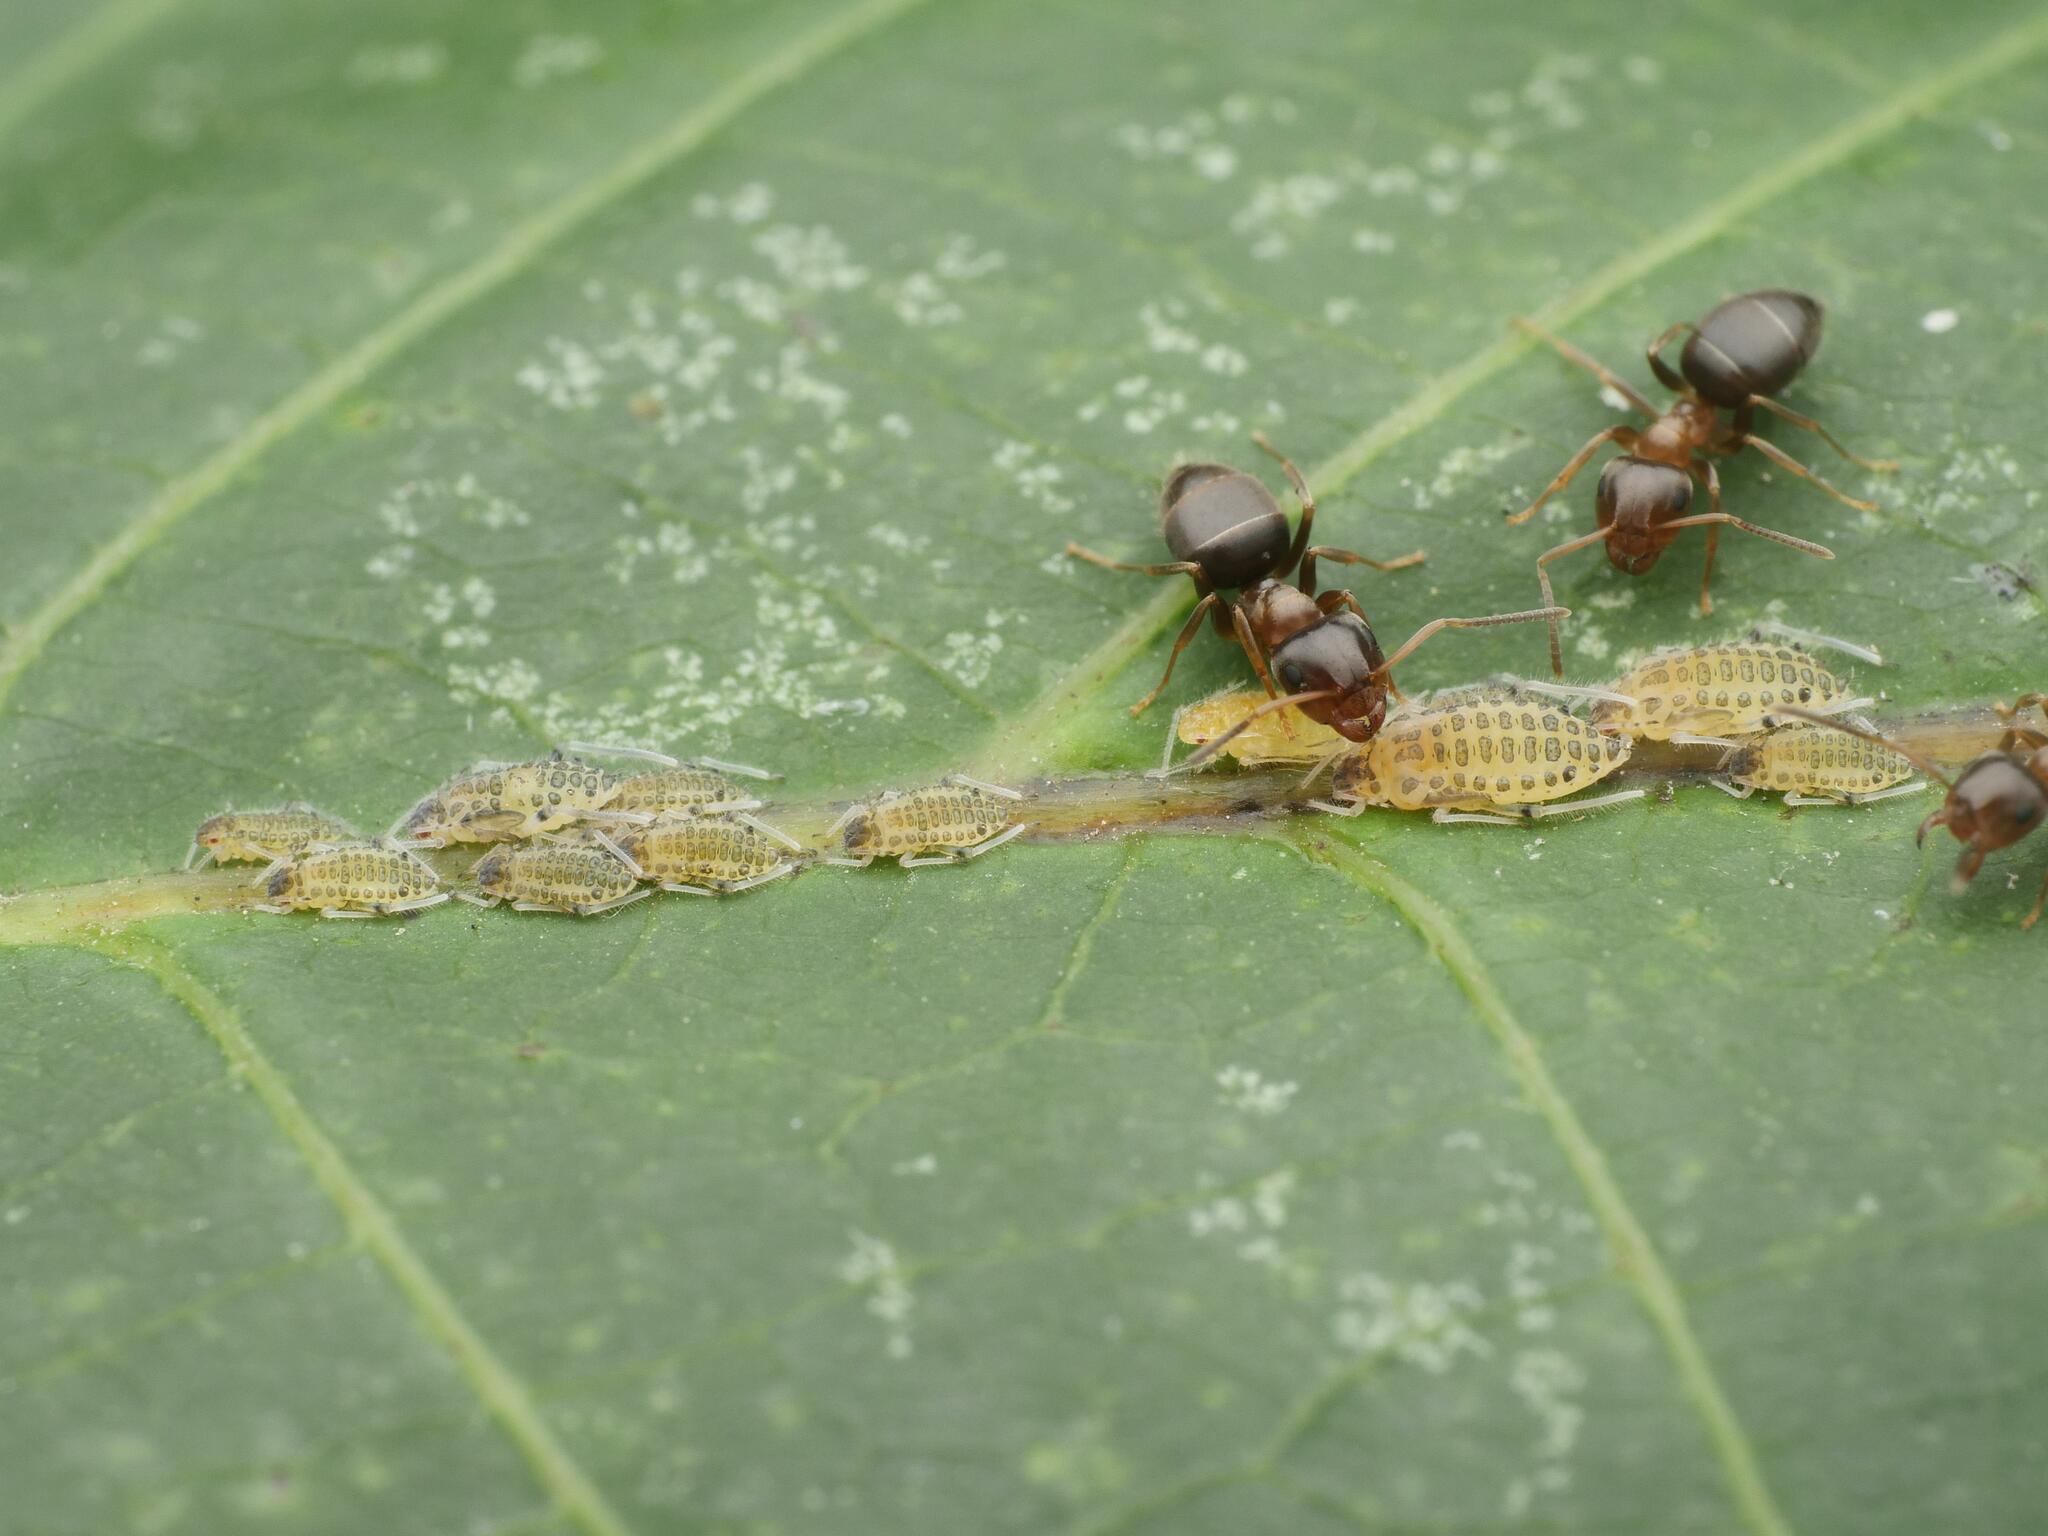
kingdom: Animalia
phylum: Arthropoda
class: Insecta
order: Hemiptera
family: Aphididae
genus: Panaphis
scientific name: Panaphis juglandis
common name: Large walnut aphid
